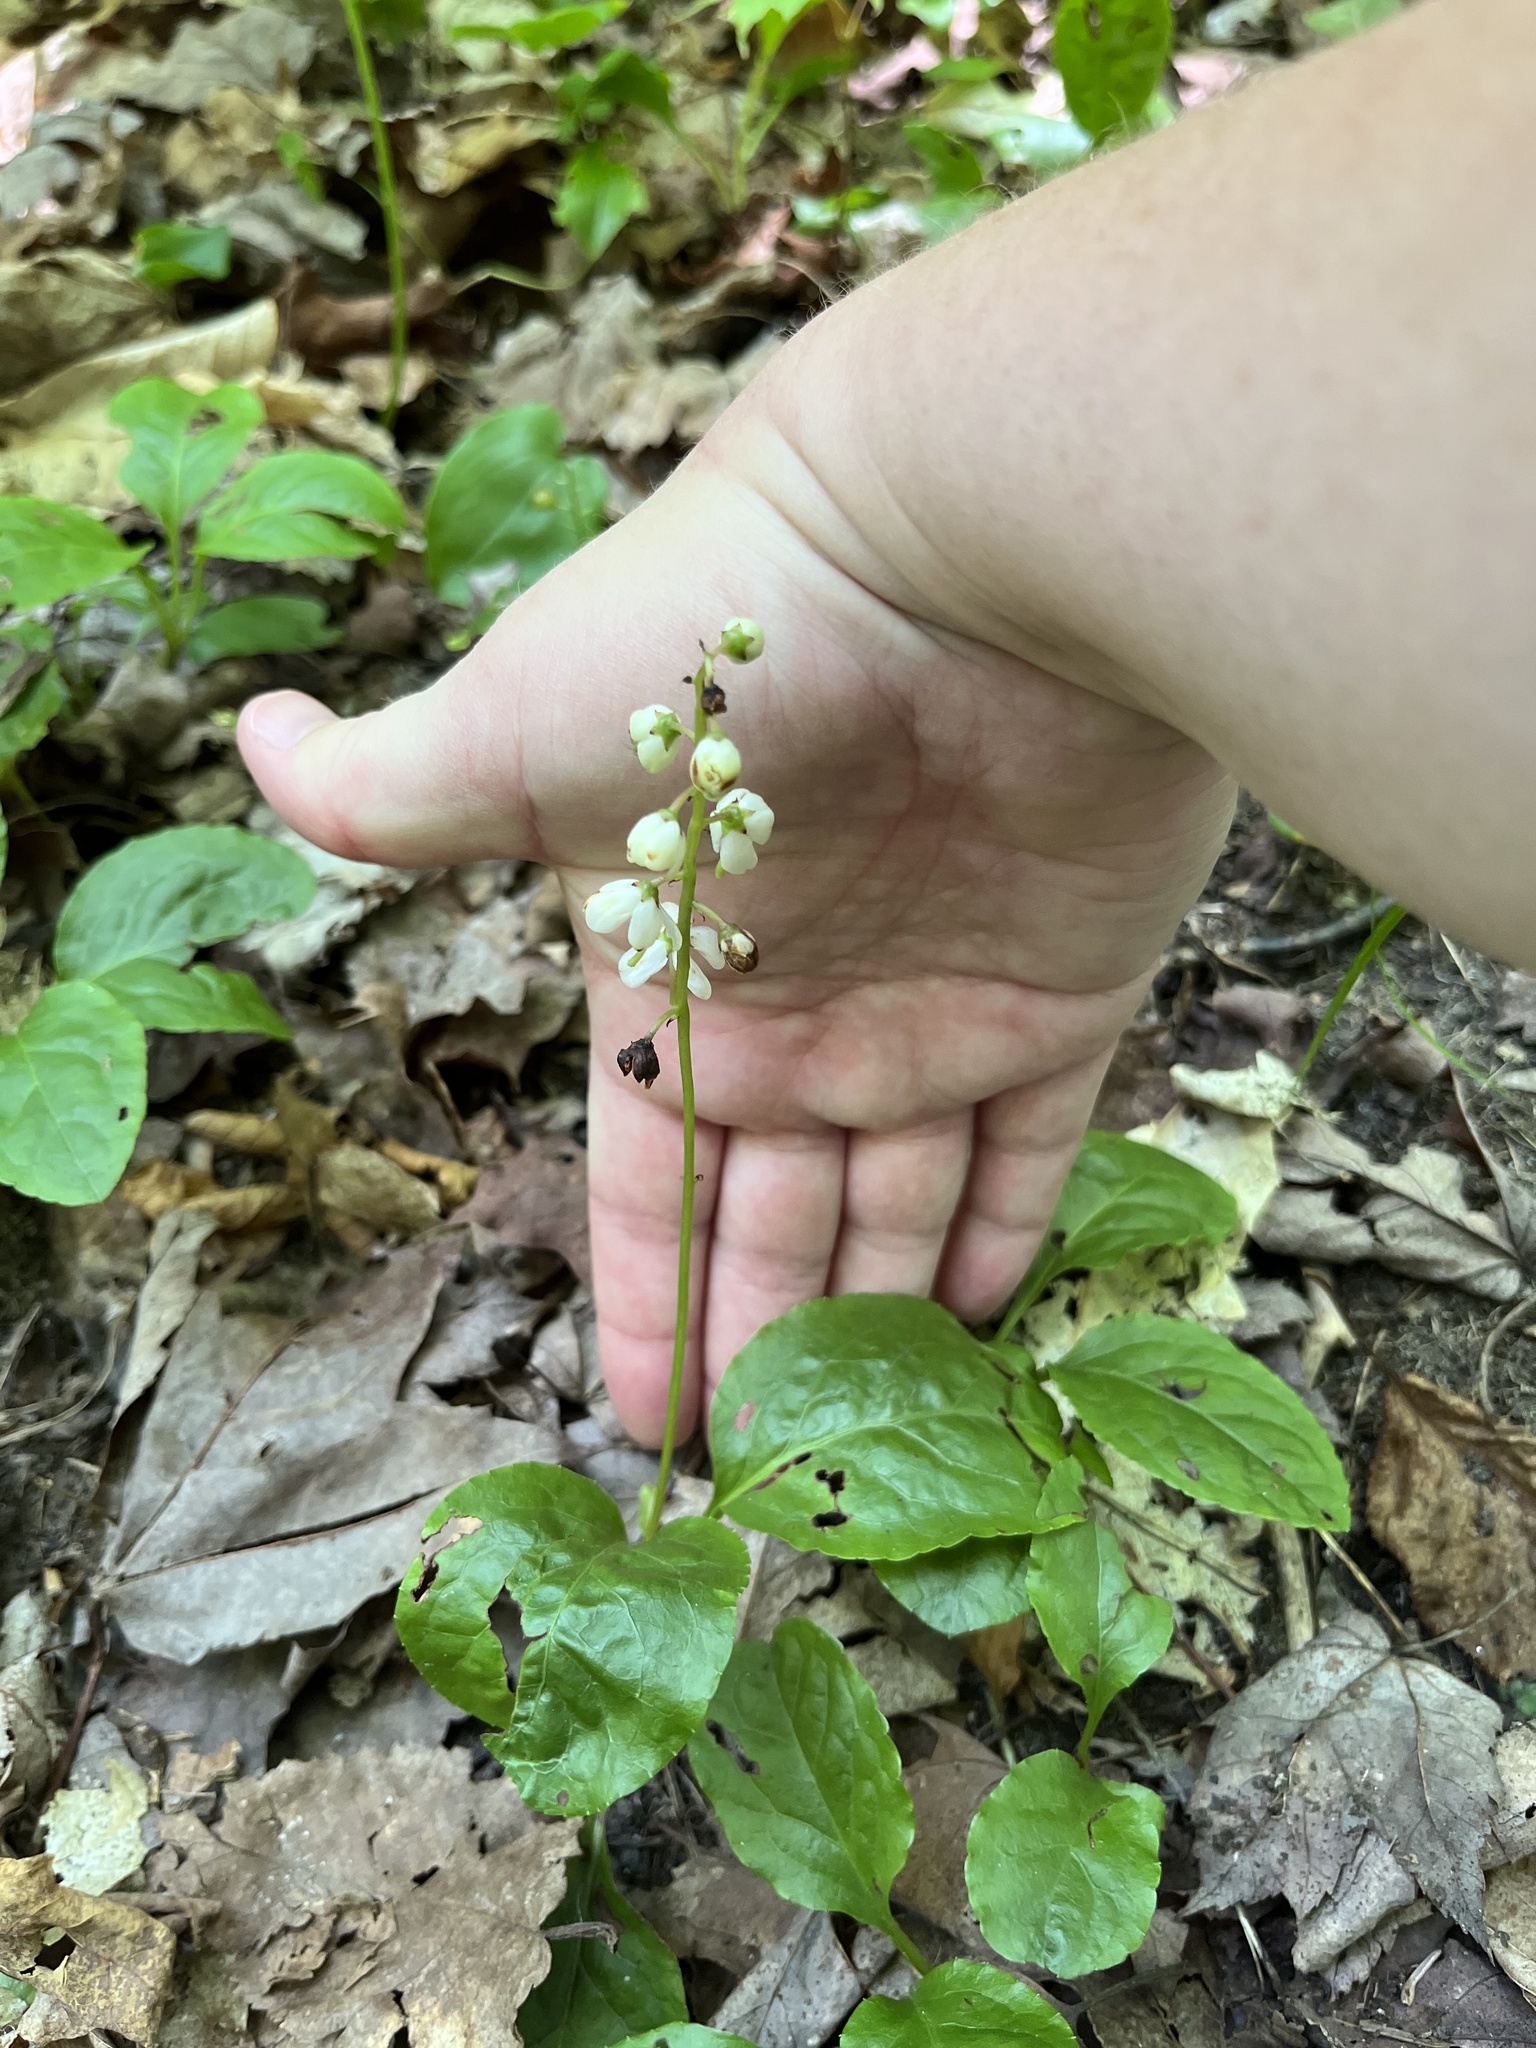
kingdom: Plantae
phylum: Tracheophyta
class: Magnoliopsida
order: Ericales
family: Ericaceae
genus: Pyrola
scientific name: Pyrola elliptica
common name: Shinleaf
